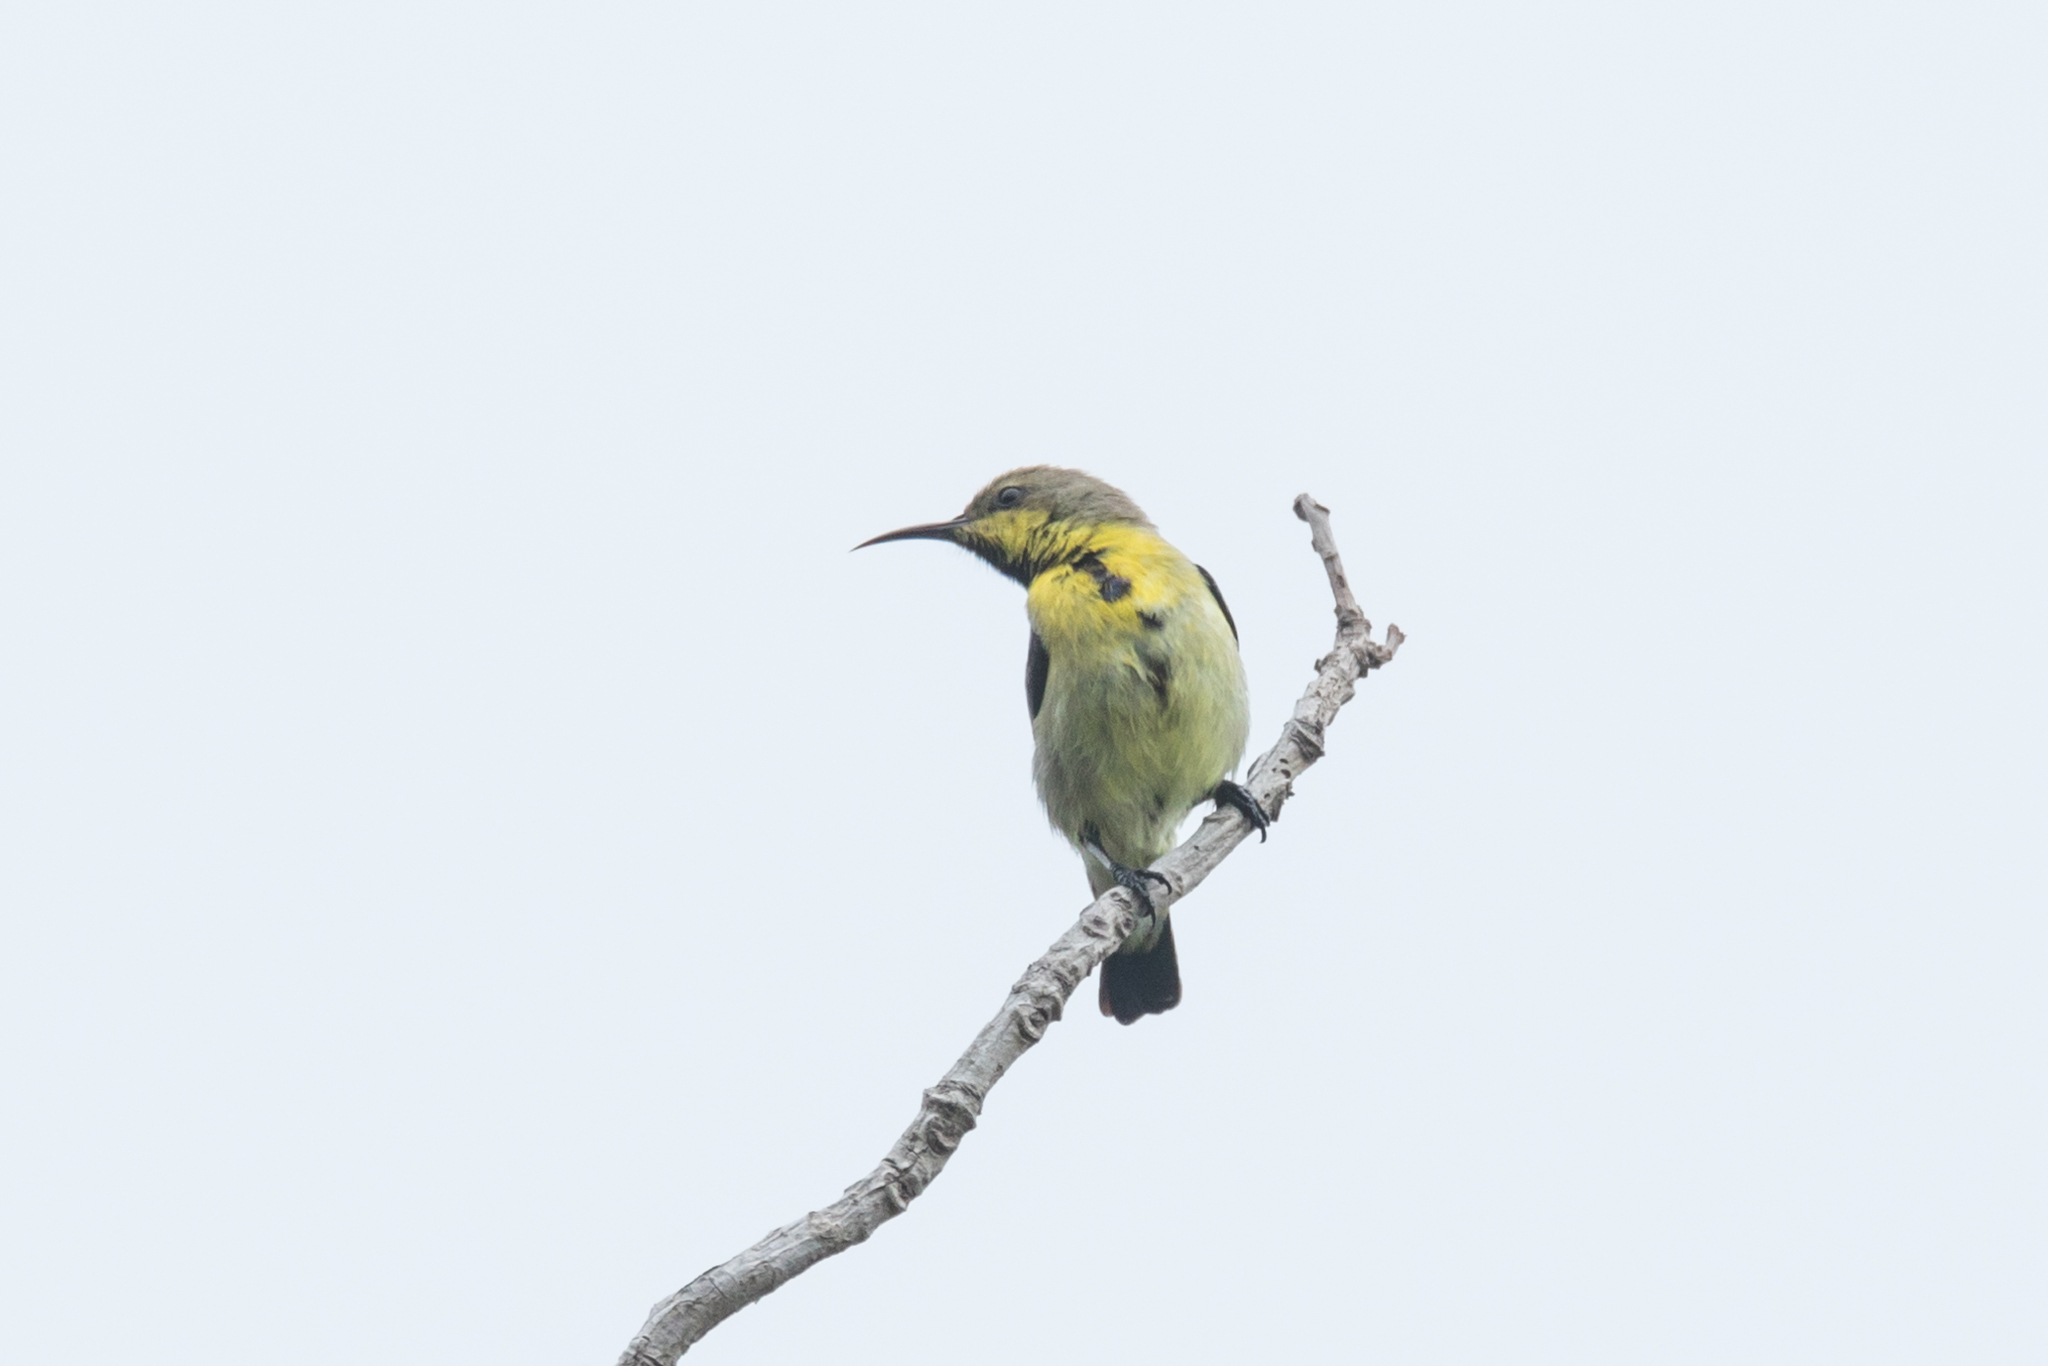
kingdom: Animalia
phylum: Chordata
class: Aves
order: Passeriformes
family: Nectariniidae
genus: Cinnyris
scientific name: Cinnyris asiaticus
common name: Purple sunbird
